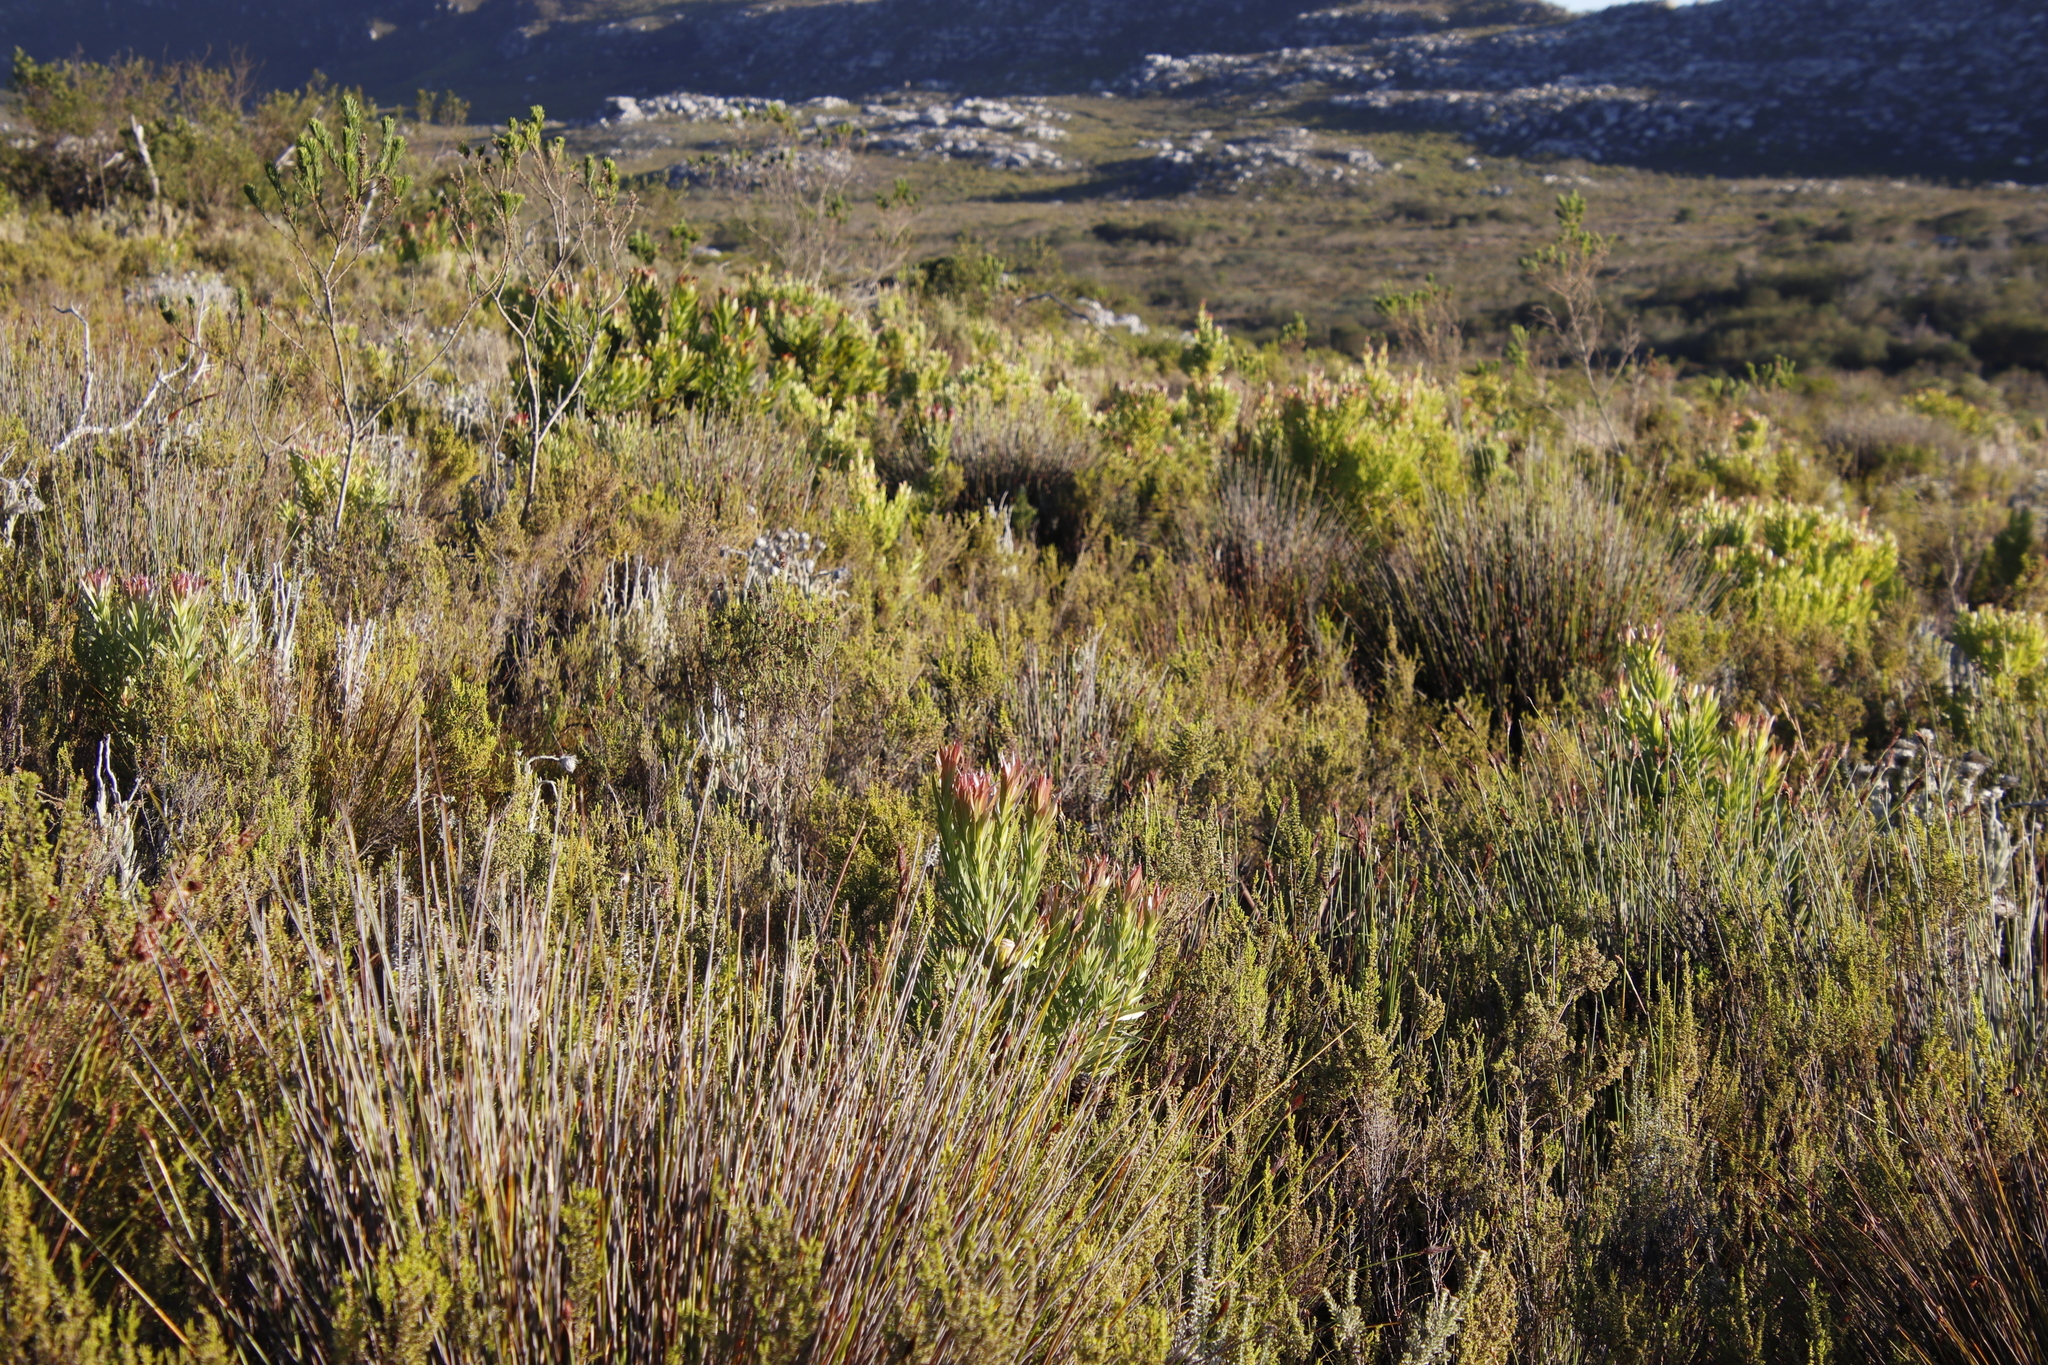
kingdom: Plantae
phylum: Tracheophyta
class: Magnoliopsida
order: Proteales
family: Proteaceae
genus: Leucadendron
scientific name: Leucadendron xanthoconus
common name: Sickle-leaf conebush
